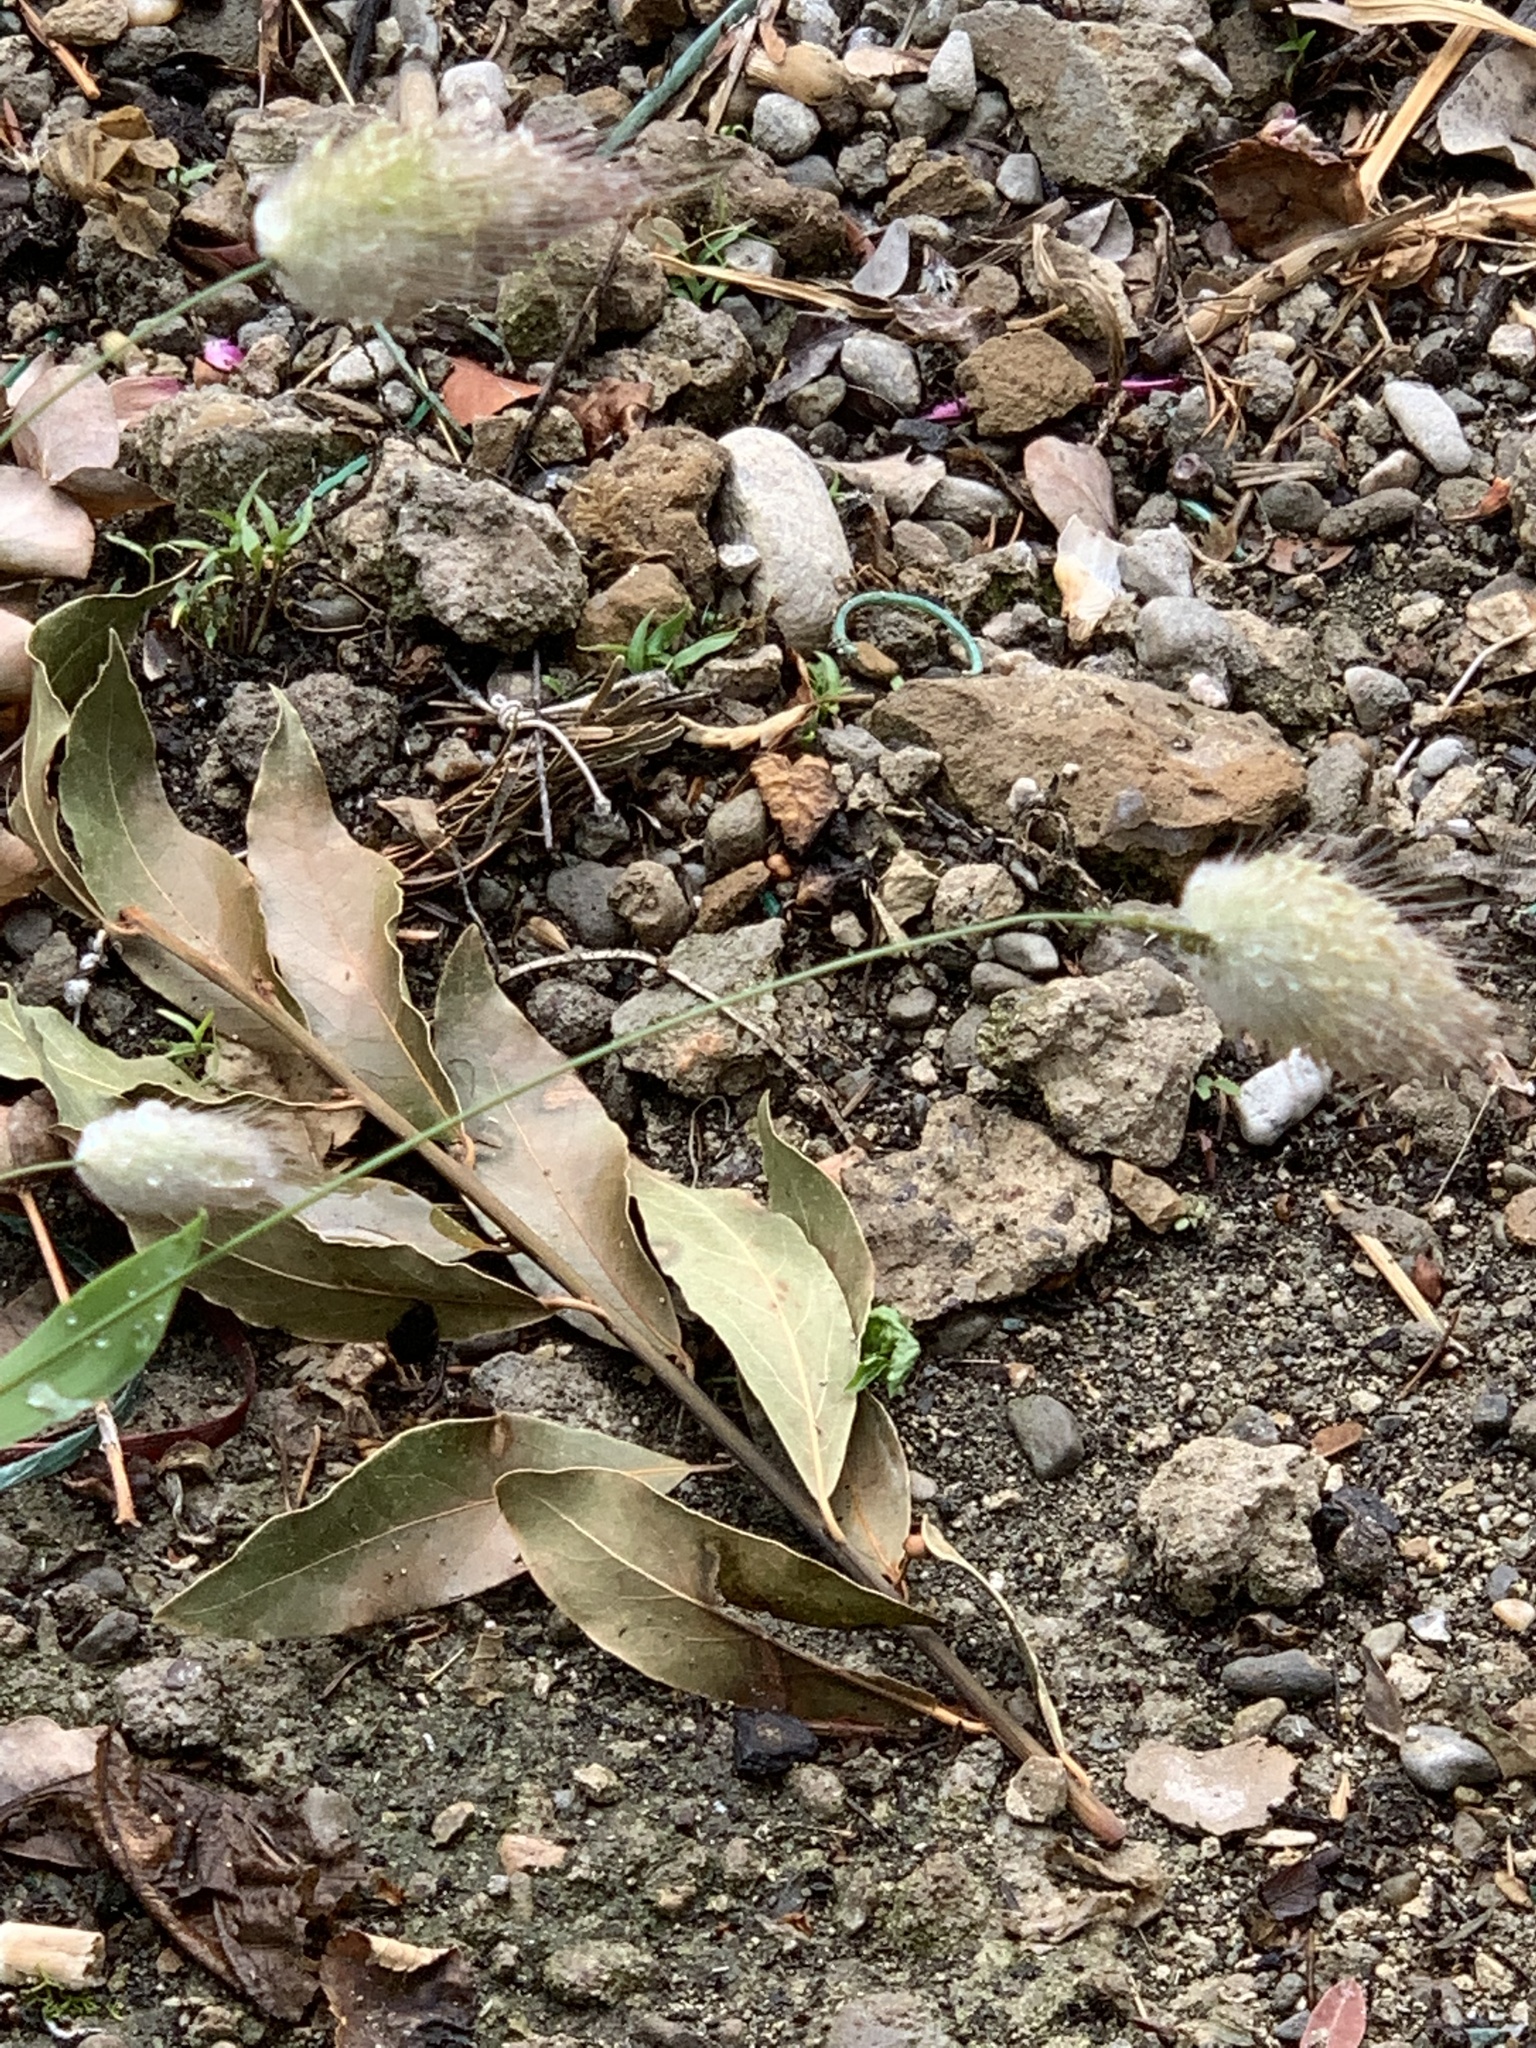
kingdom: Plantae
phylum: Tracheophyta
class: Liliopsida
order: Poales
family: Poaceae
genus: Lagurus
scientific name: Lagurus ovatus
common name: Hare's-tail
